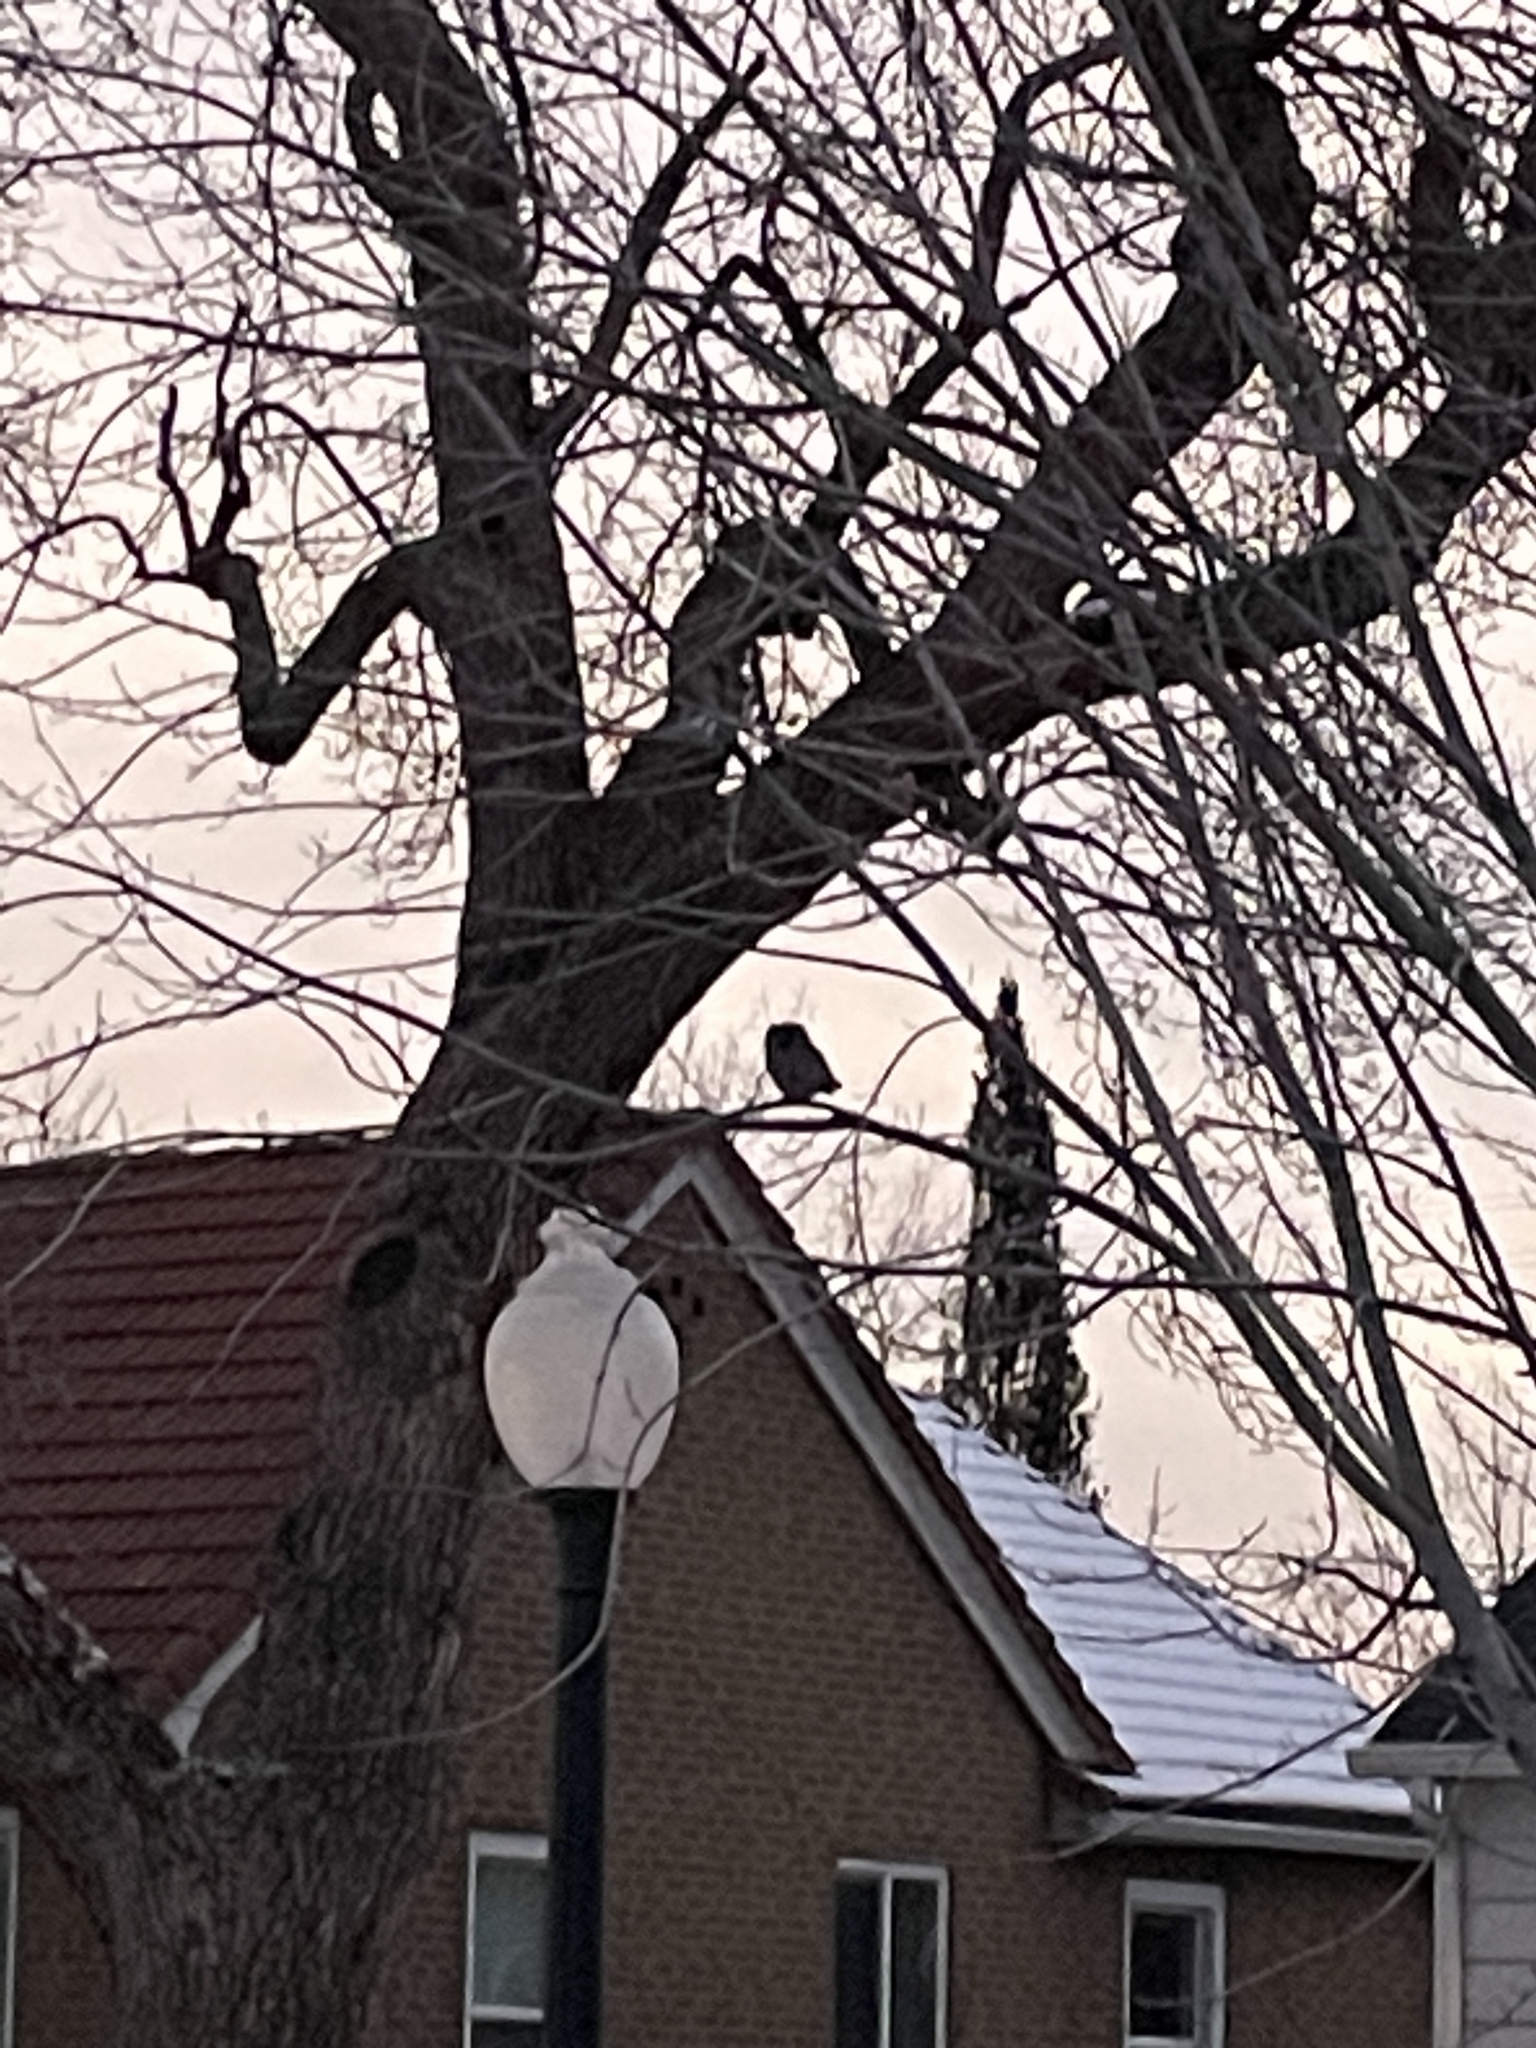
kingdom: Animalia
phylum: Chordata
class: Aves
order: Strigiformes
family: Strigidae
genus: Megascops
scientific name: Megascops kennicottii
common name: Western screech-owl
